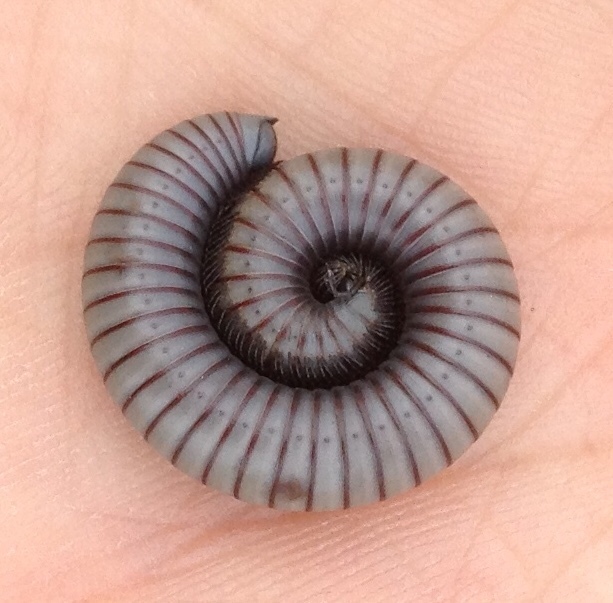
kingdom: Animalia
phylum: Arthropoda
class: Diplopoda
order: Julida
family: Julidae
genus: Ommatoiulus
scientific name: Ommatoiulus rutilans
